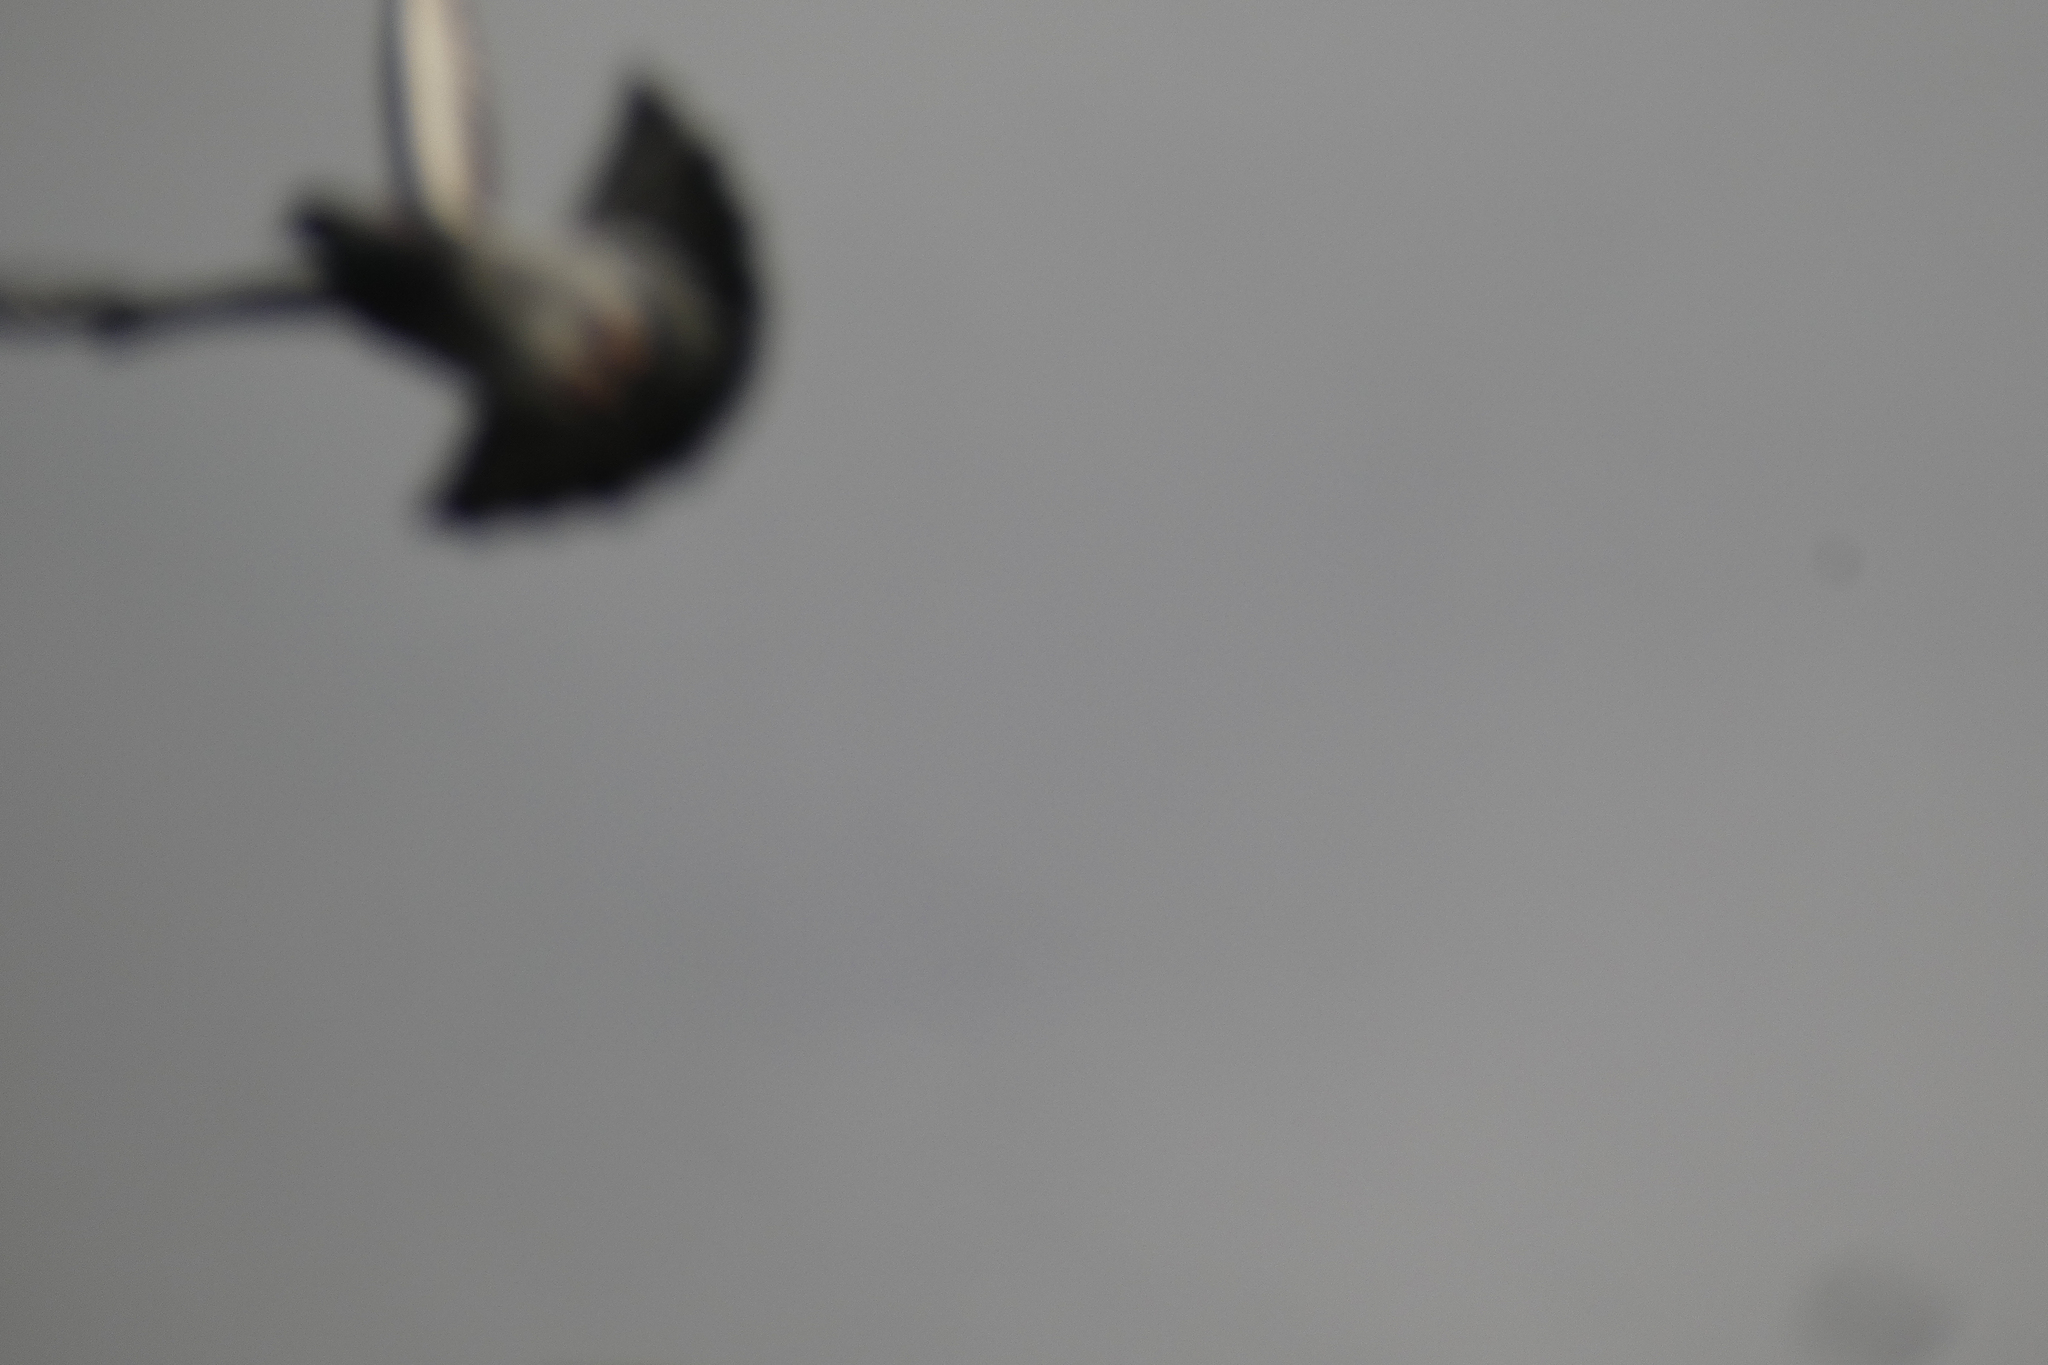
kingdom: Animalia
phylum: Chordata
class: Aves
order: Columbiformes
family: Columbidae
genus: Columba
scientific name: Columba livia
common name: Rock pigeon
